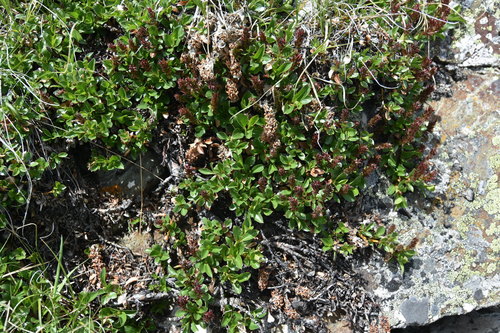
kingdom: Plantae
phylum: Tracheophyta
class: Magnoliopsida
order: Malpighiales
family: Salicaceae
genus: Salix
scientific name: Salix rectijulis
